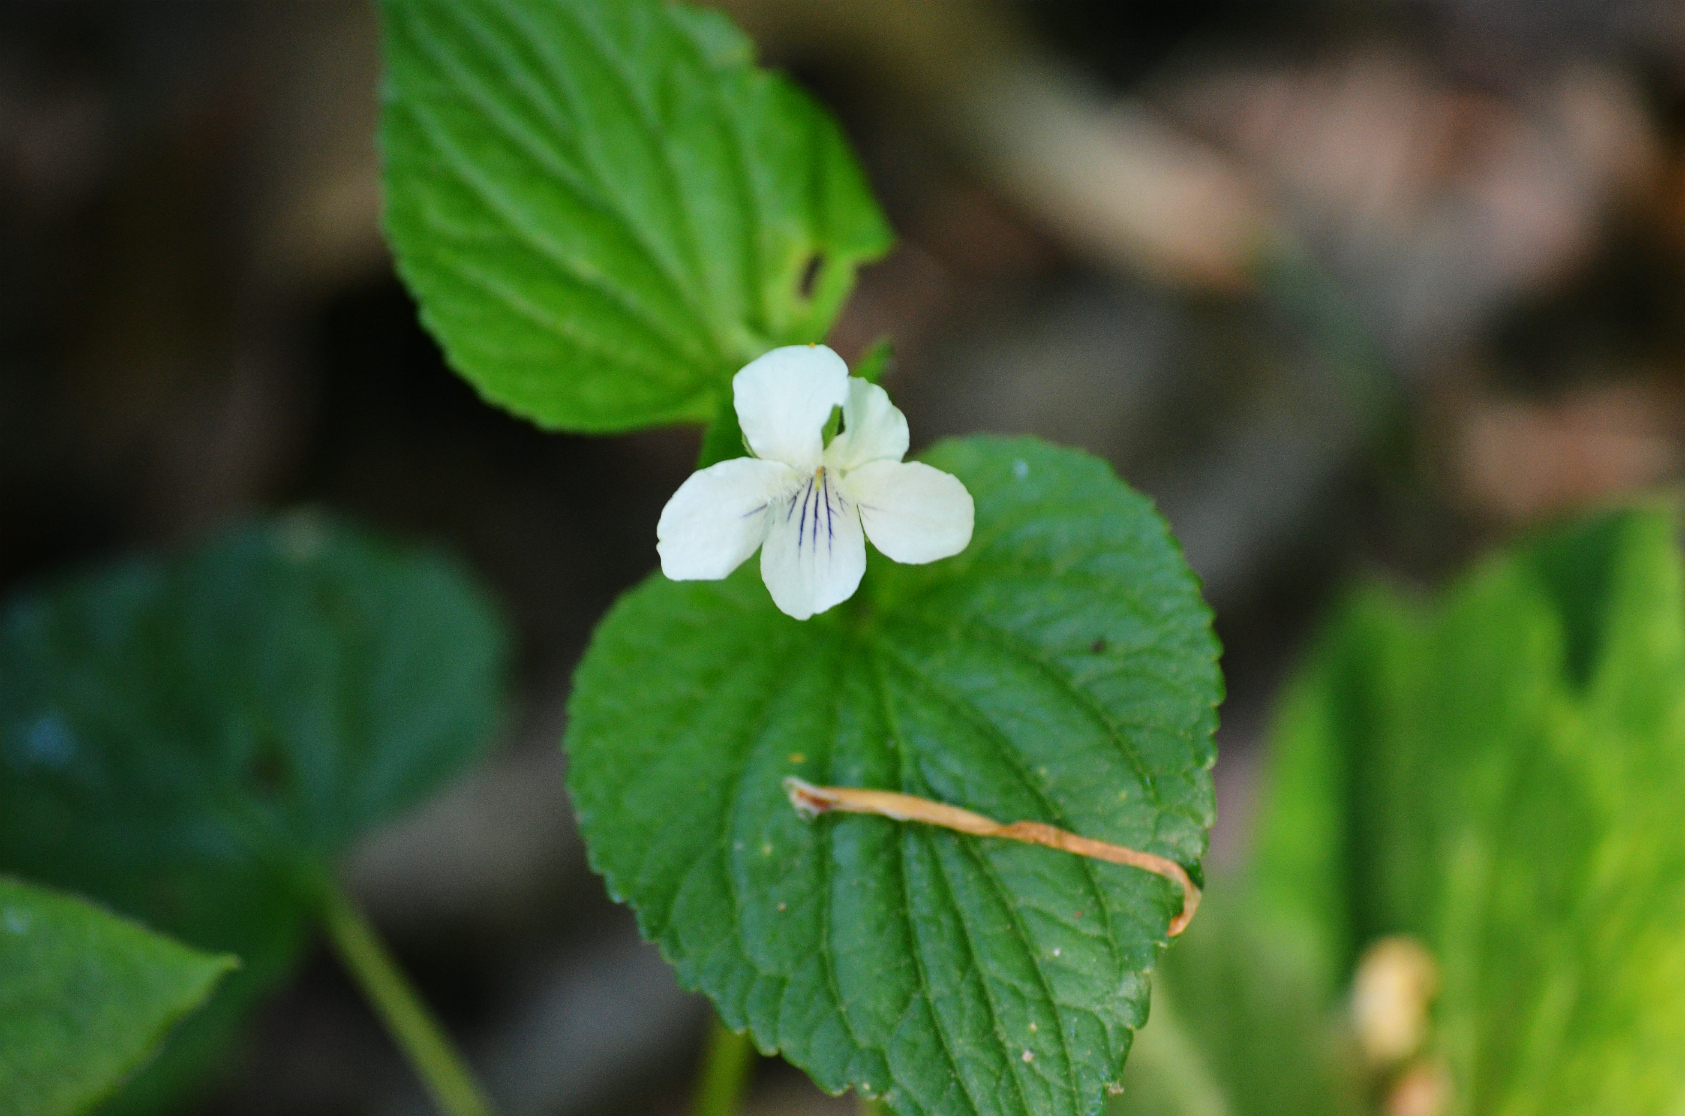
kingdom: Plantae
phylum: Tracheophyta
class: Magnoliopsida
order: Malpighiales
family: Violaceae
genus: Viola
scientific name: Viola striata
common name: Cream violet
